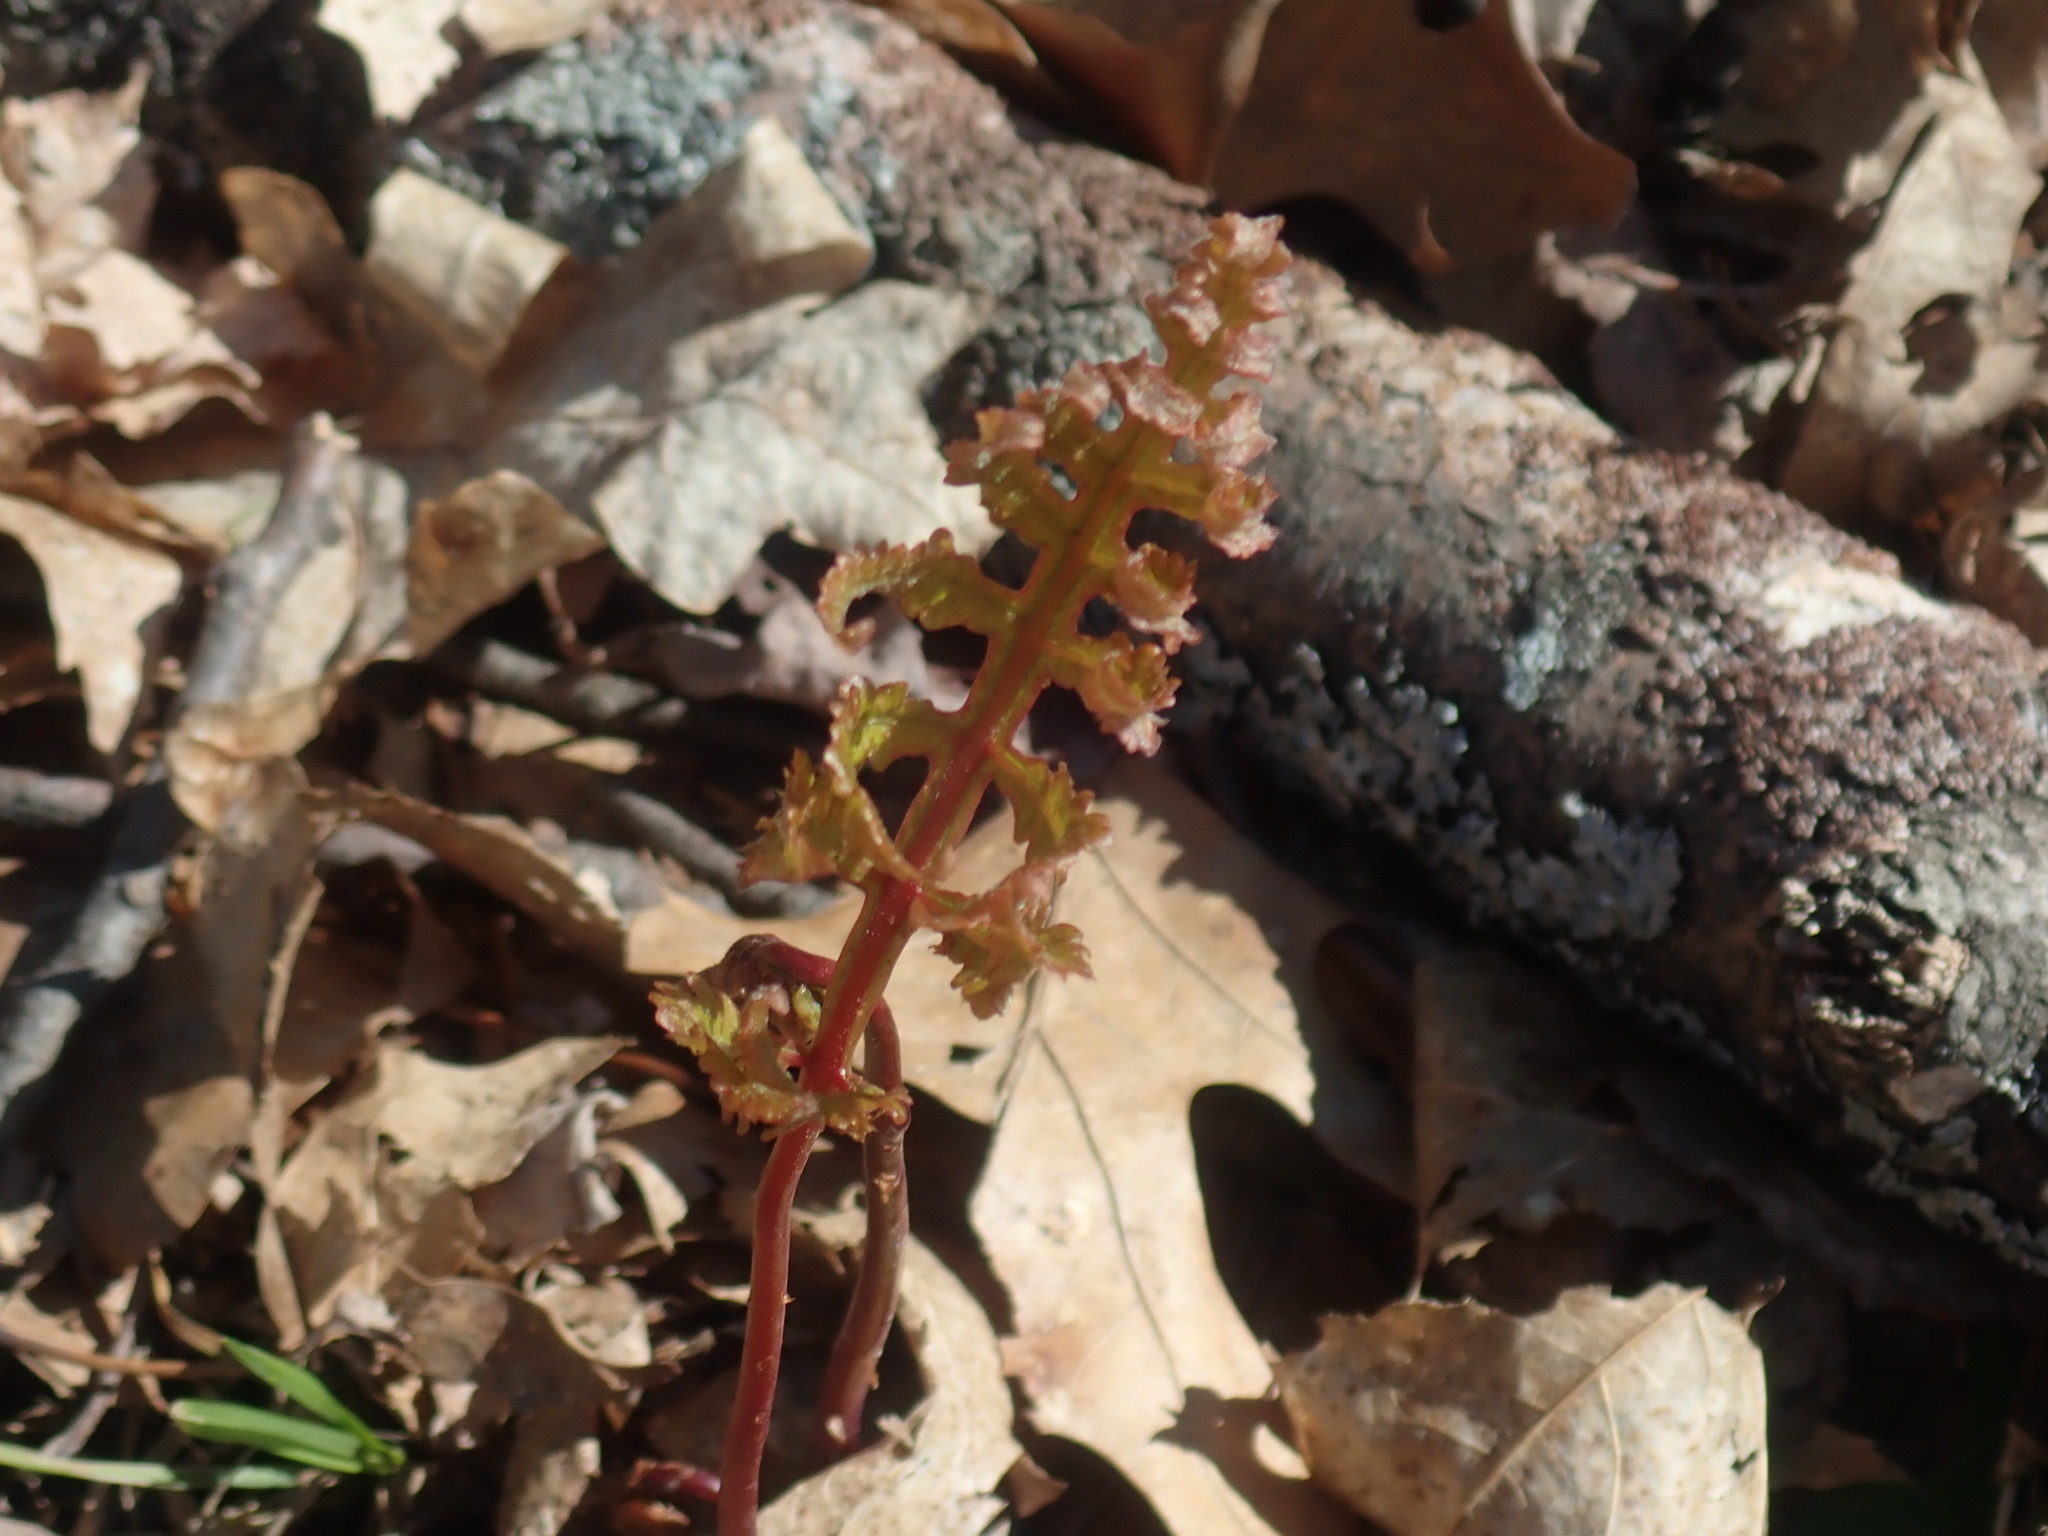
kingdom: Plantae
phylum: Tracheophyta
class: Polypodiopsida
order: Polypodiales
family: Onocleaceae
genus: Onoclea
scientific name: Onoclea sensibilis
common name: Sensitive fern
